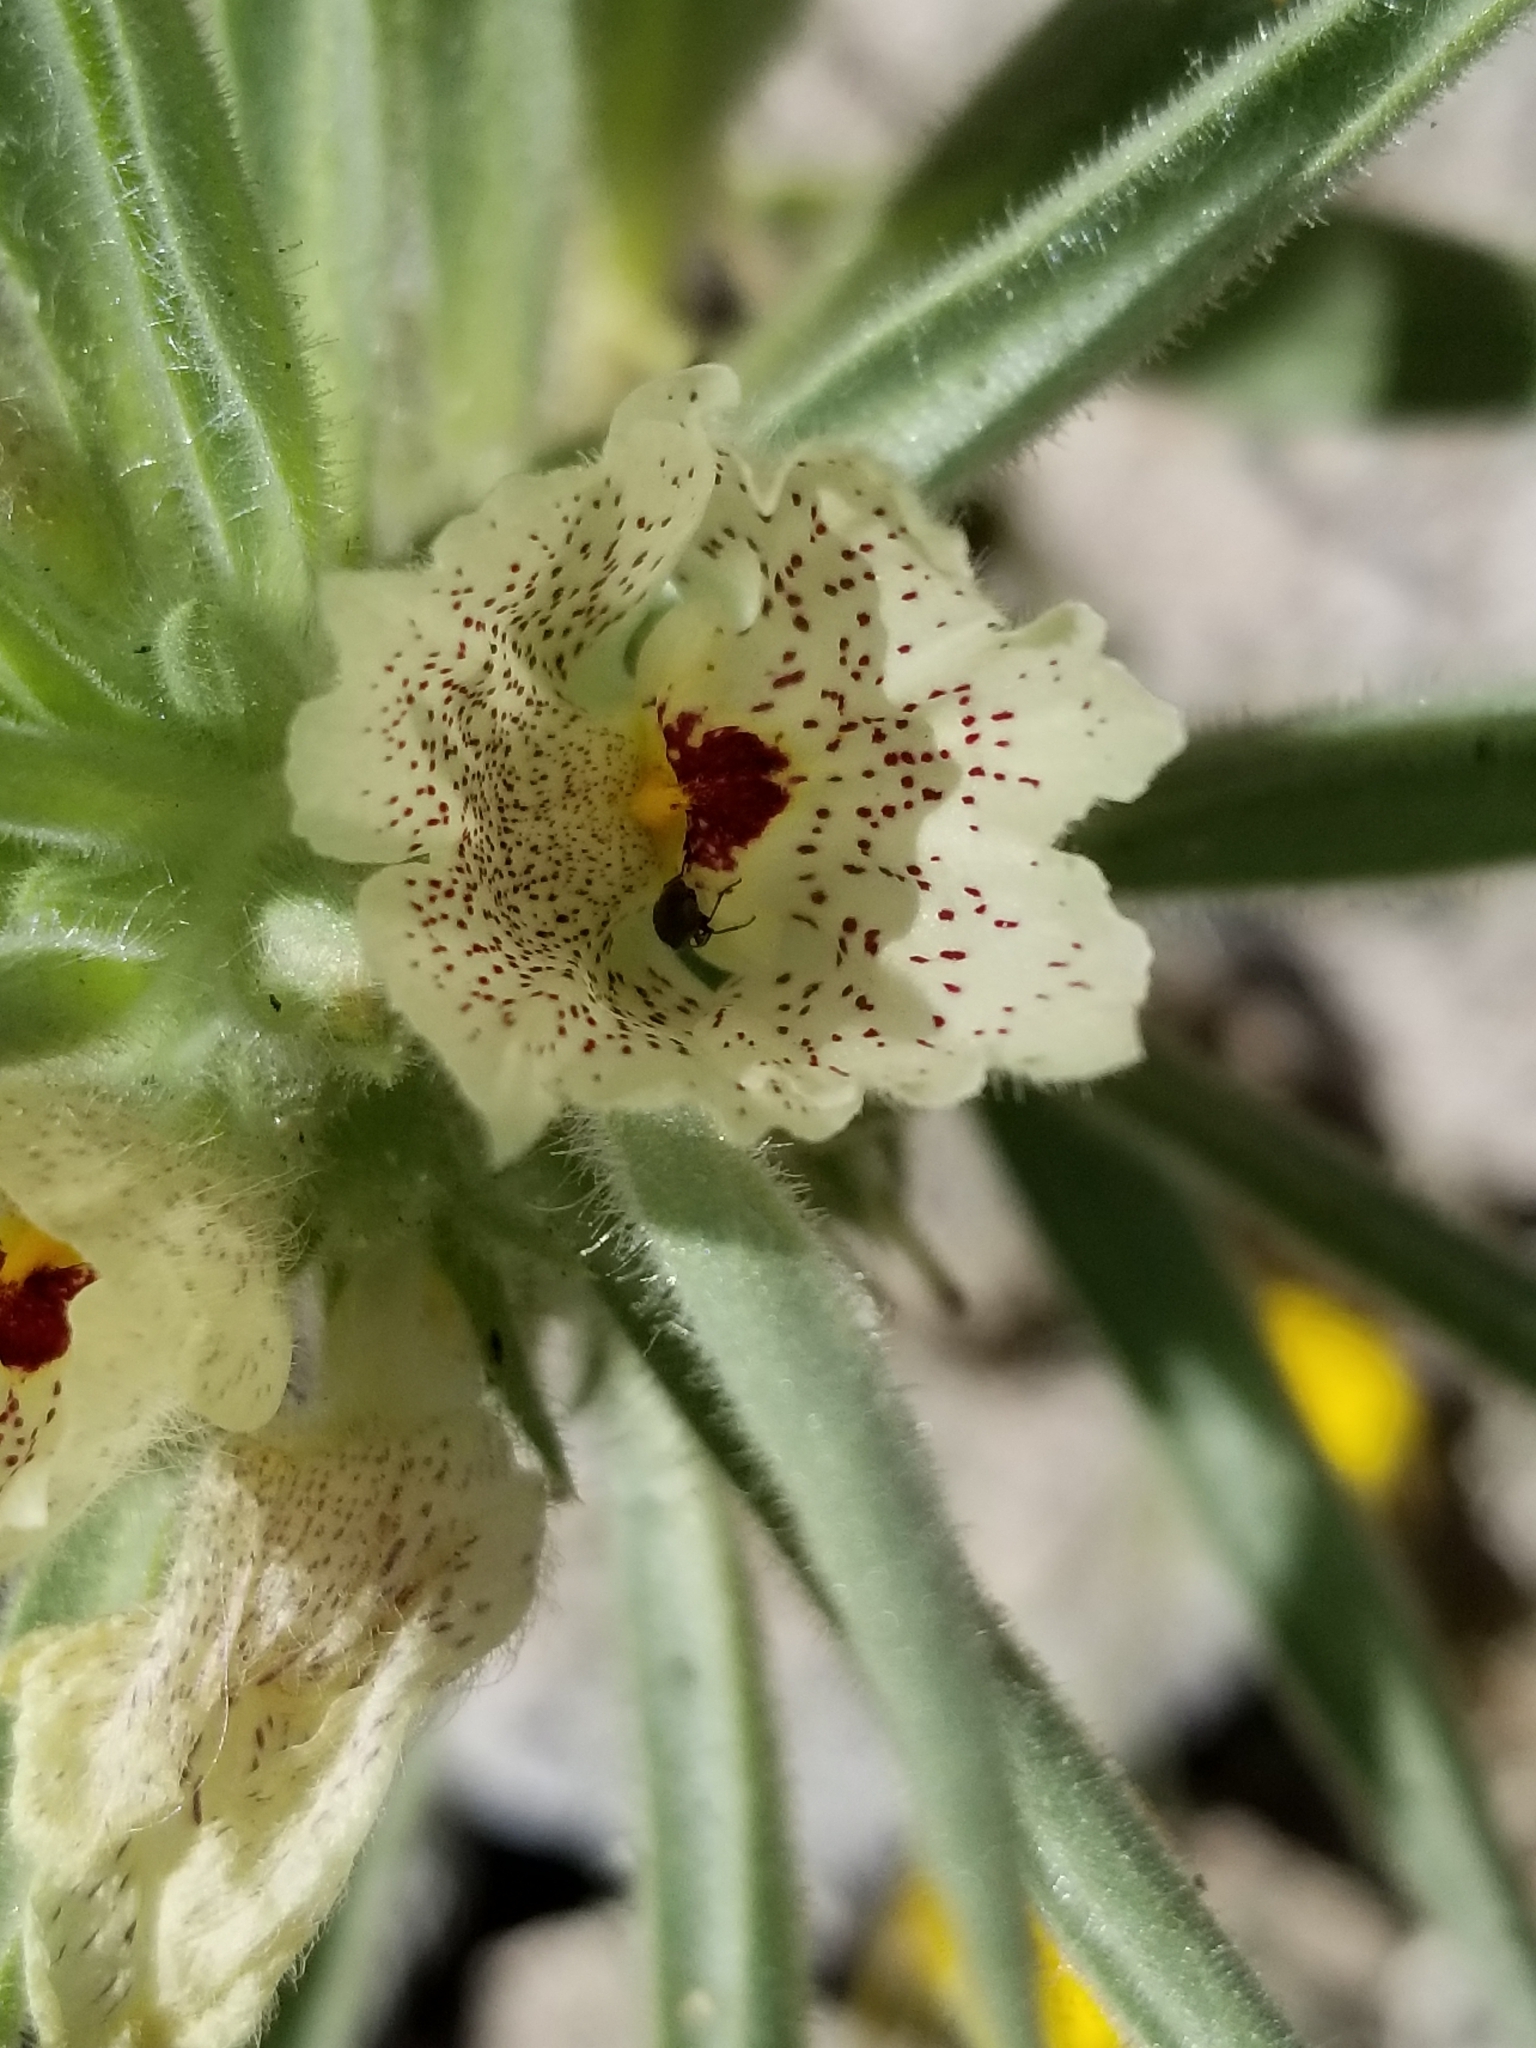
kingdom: Plantae
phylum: Tracheophyta
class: Magnoliopsida
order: Lamiales
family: Plantaginaceae
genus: Mohavea
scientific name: Mohavea confertiflora
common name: Ghost flower
